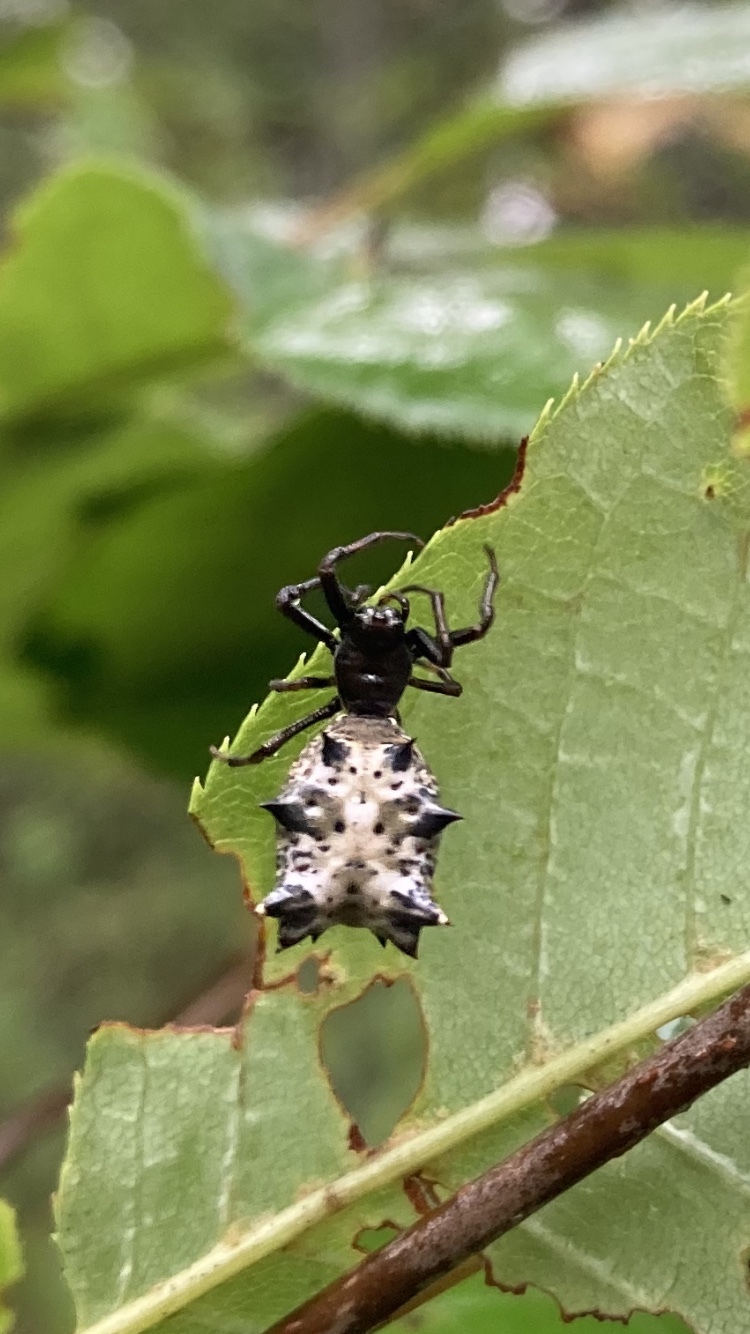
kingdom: Animalia
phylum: Arthropoda
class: Arachnida
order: Araneae
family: Araneidae
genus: Micrathena
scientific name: Micrathena gracilis
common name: Orb weavers
